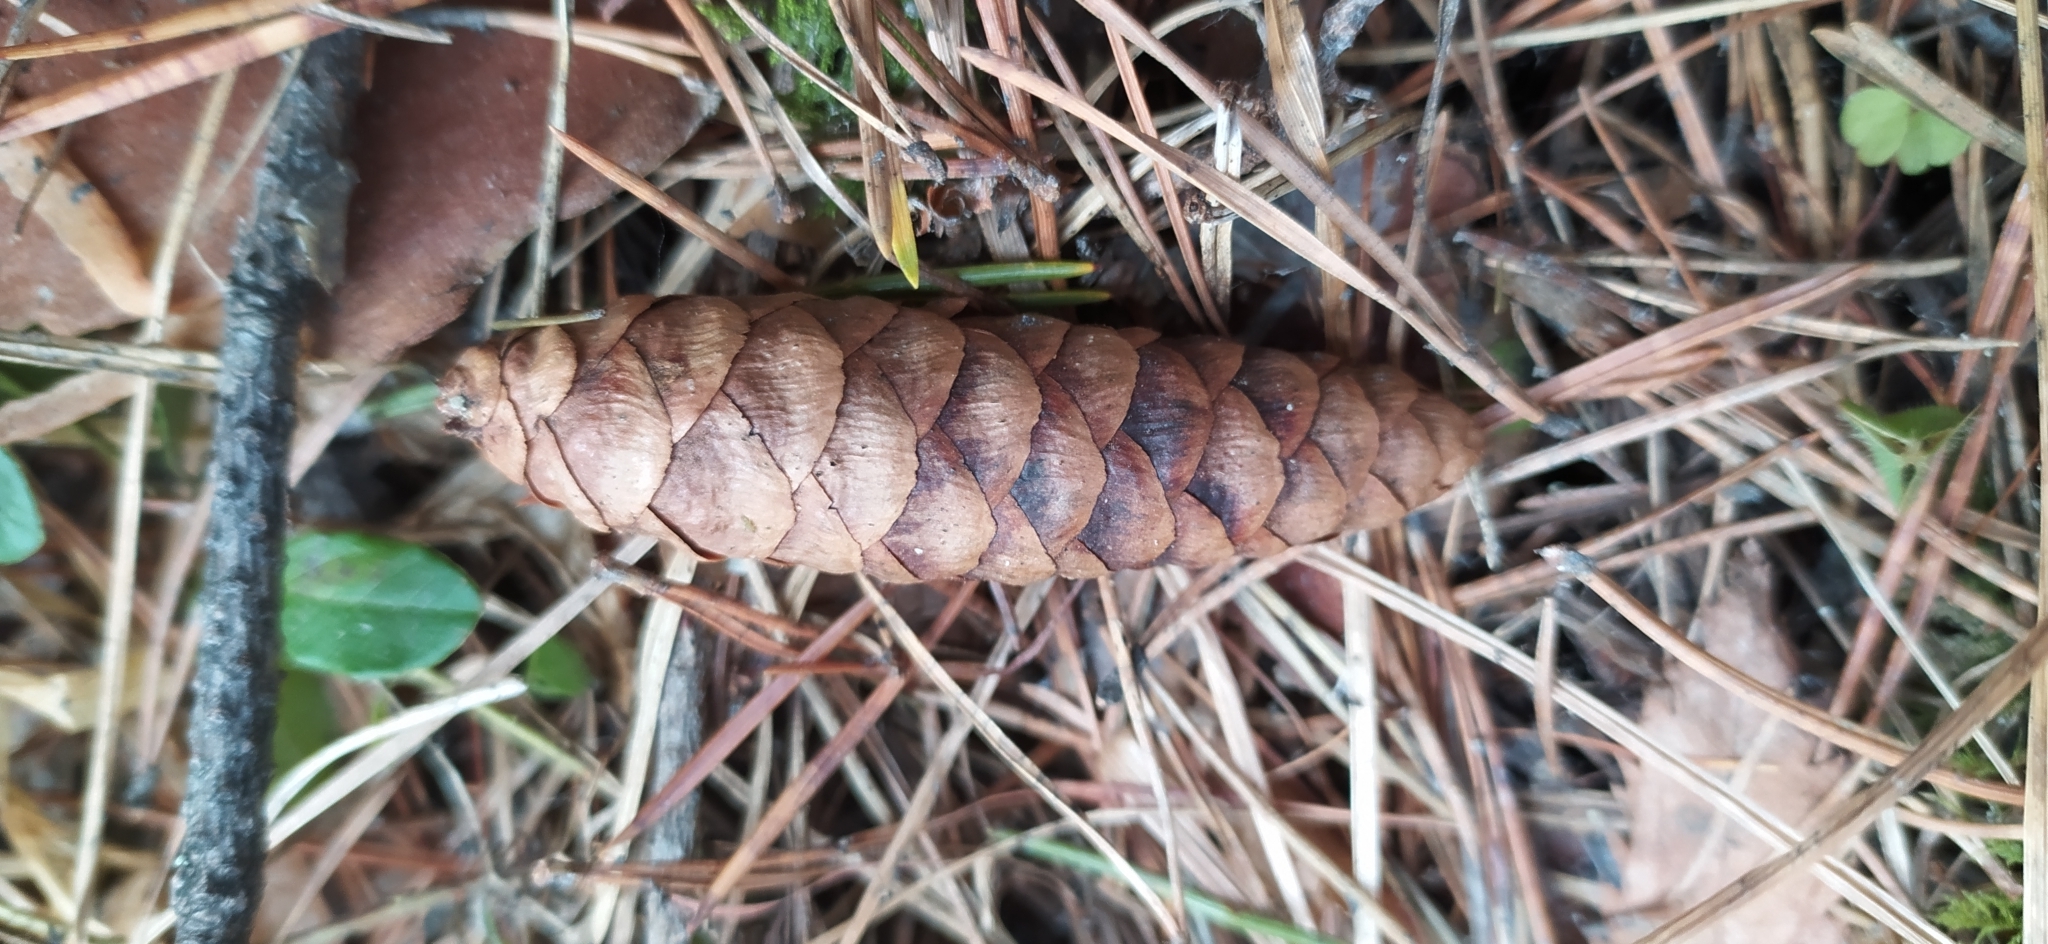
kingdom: Plantae
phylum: Tracheophyta
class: Pinopsida
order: Pinales
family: Pinaceae
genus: Picea
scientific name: Picea obovata
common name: Siberian spruce
